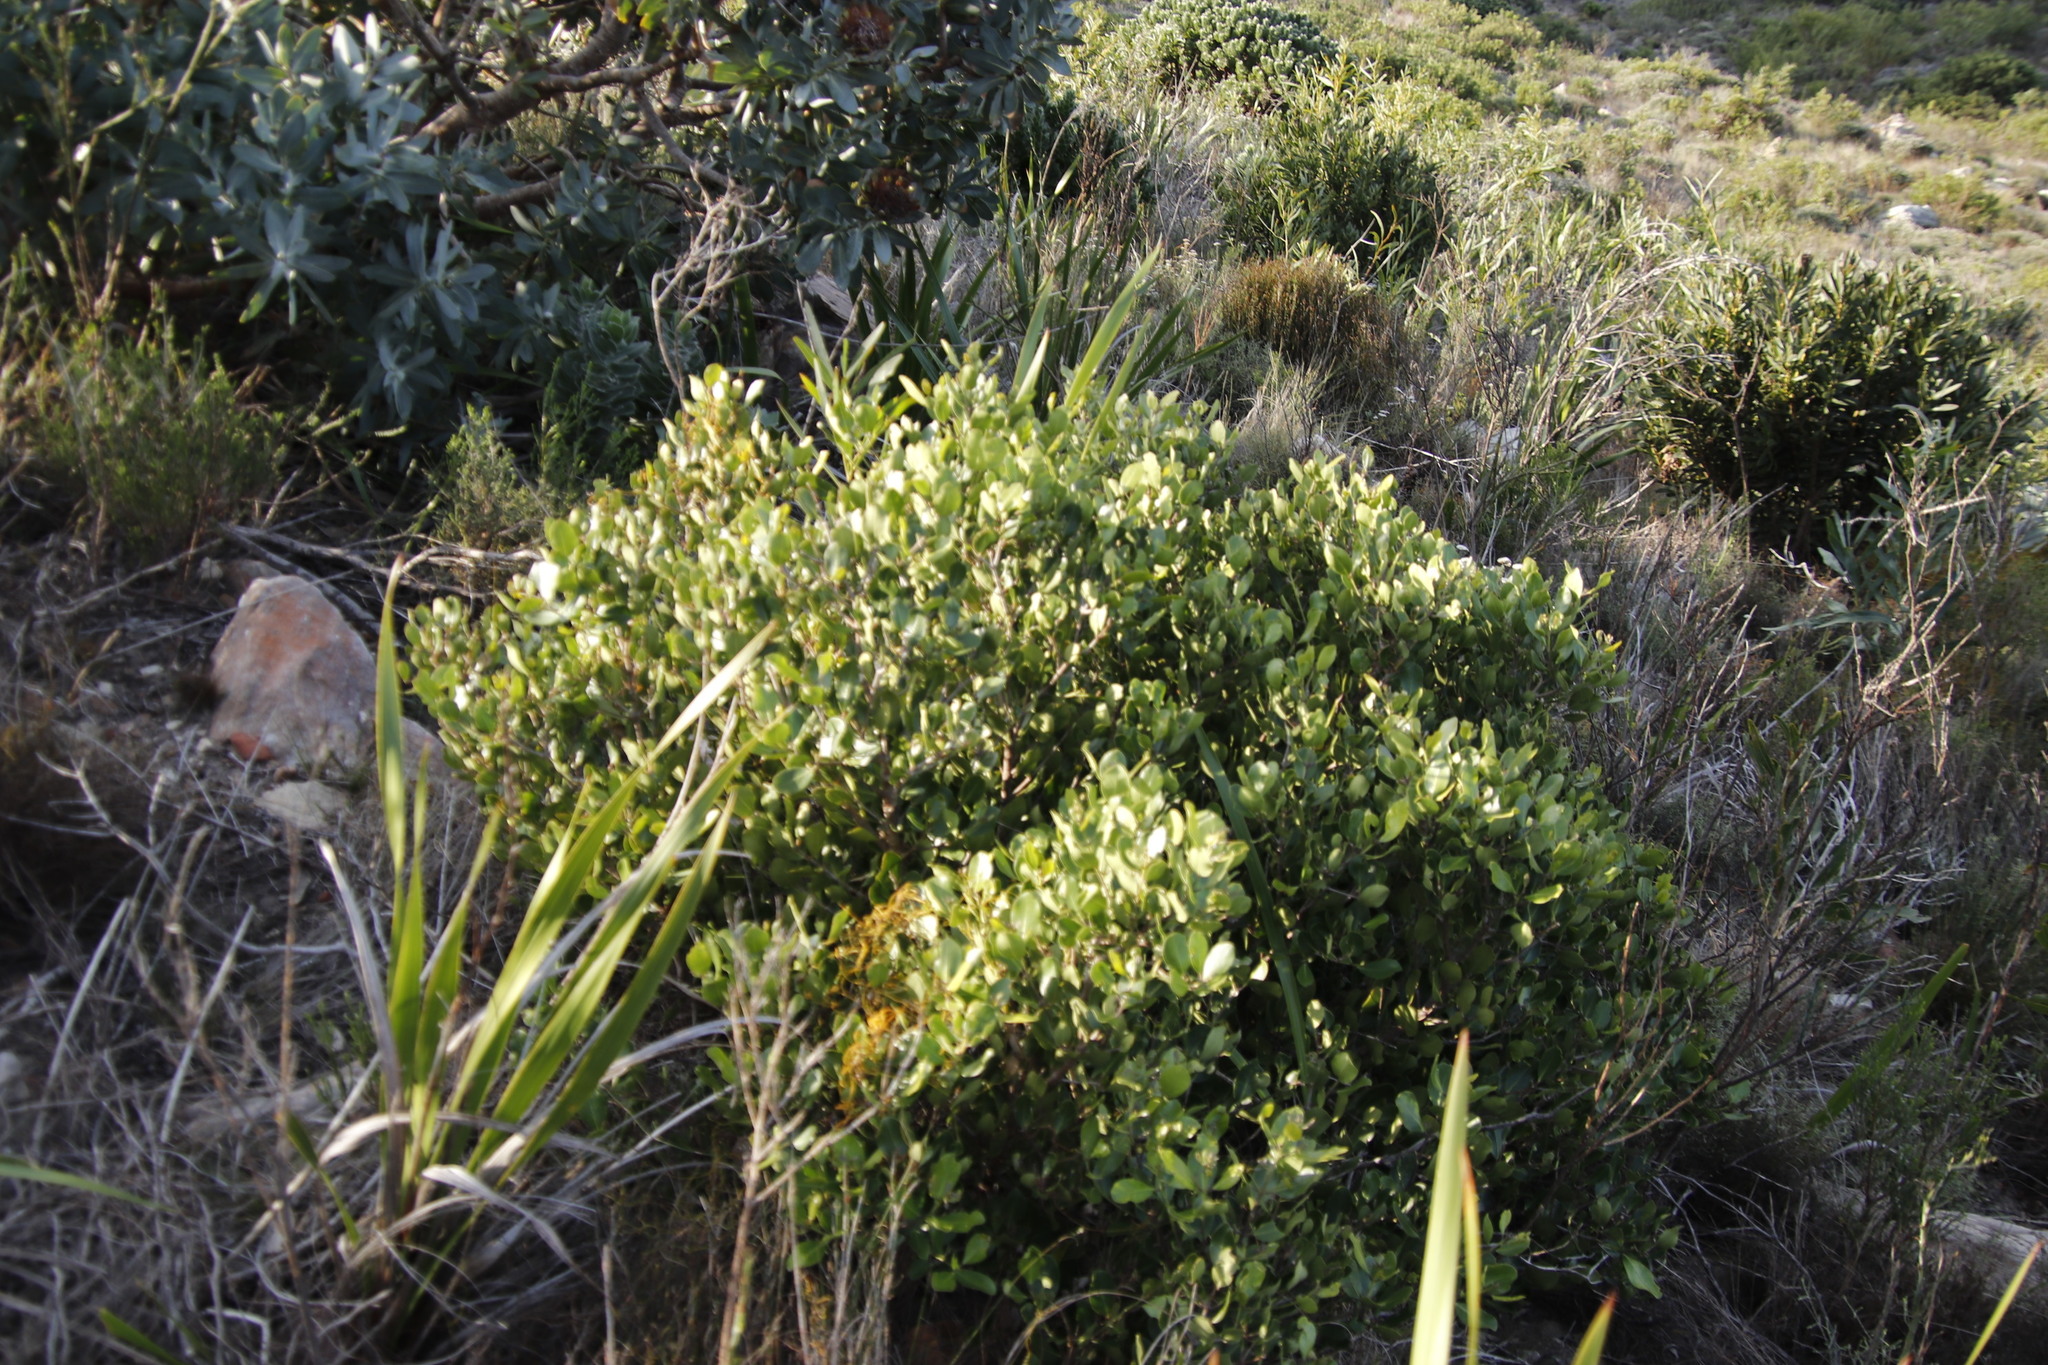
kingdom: Plantae
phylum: Tracheophyta
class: Magnoliopsida
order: Lamiales
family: Oleaceae
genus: Olea
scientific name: Olea capensis
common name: Black ironwood
